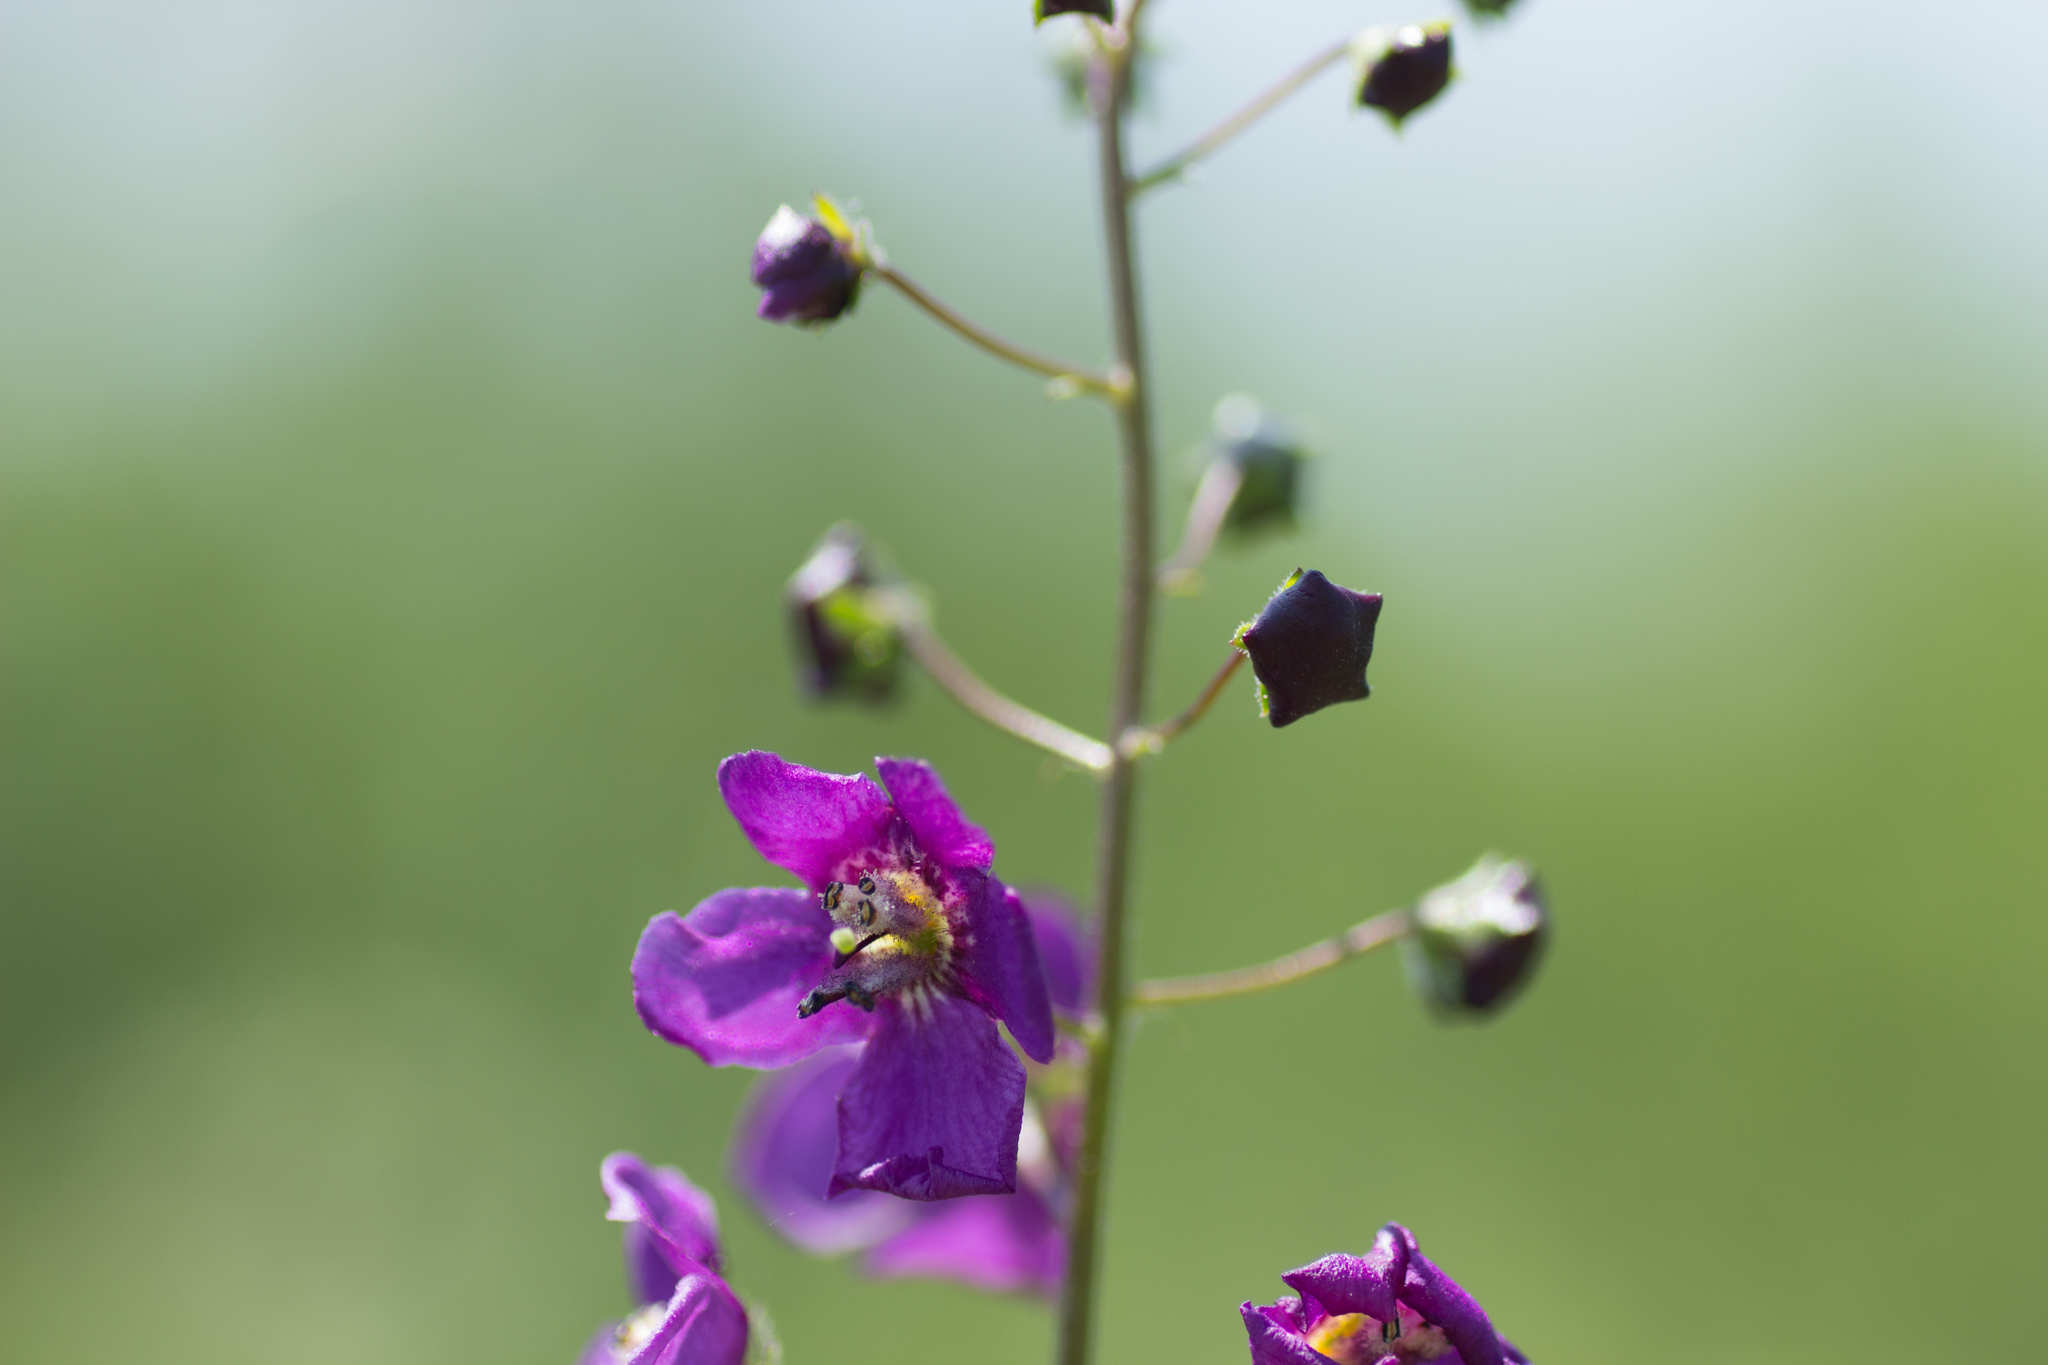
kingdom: Plantae
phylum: Tracheophyta
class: Magnoliopsida
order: Lamiales
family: Scrophulariaceae
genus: Verbascum
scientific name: Verbascum phoeniceum
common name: Purple mullein
